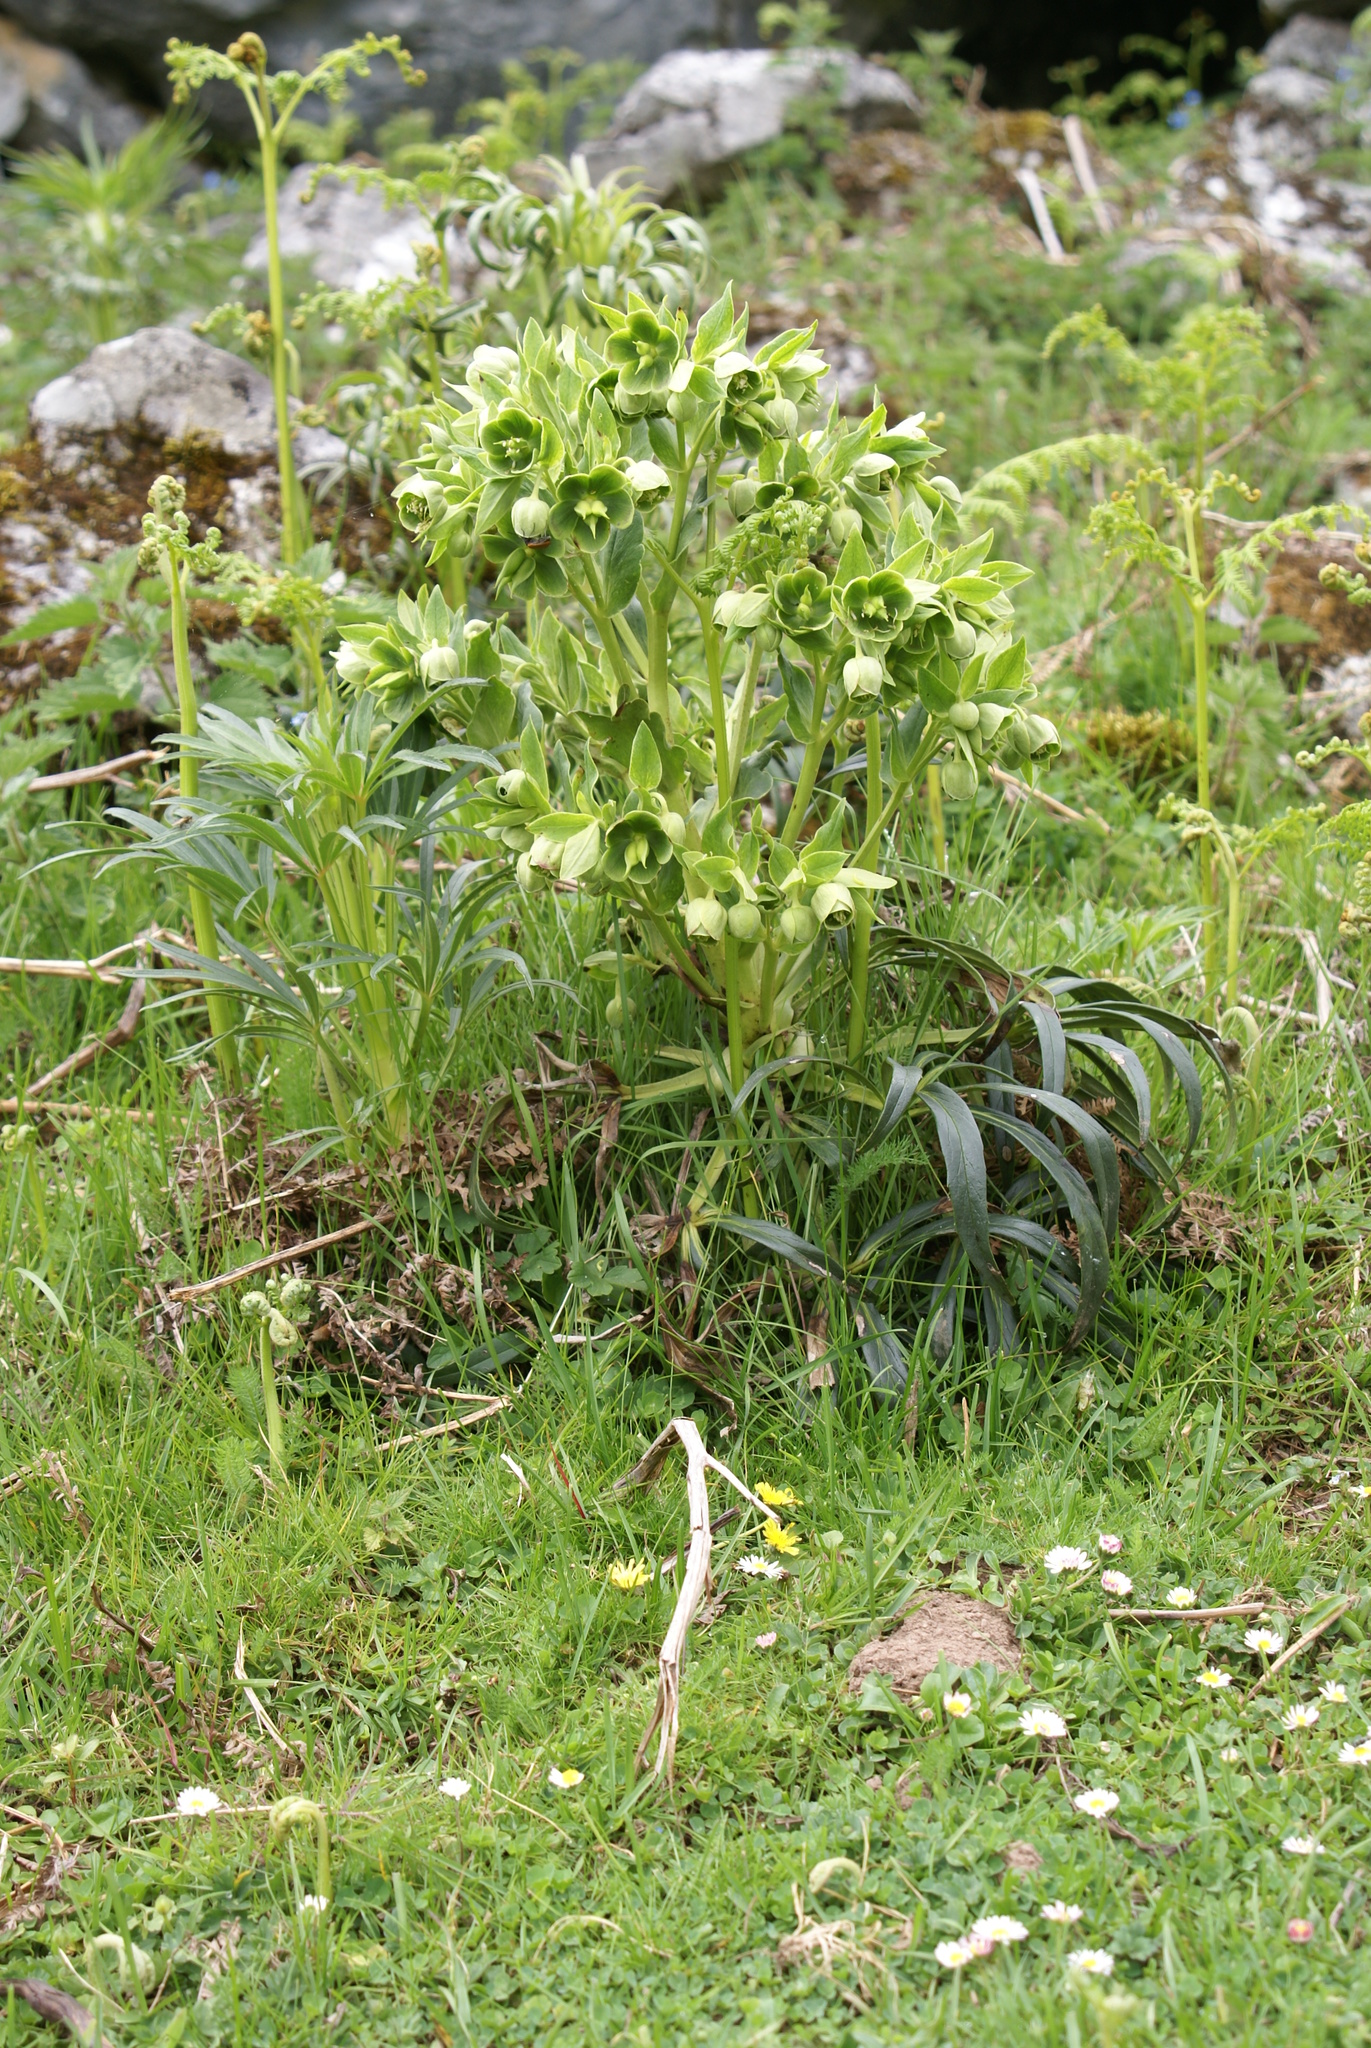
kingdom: Plantae
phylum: Tracheophyta
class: Magnoliopsida
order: Ranunculales
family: Ranunculaceae
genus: Helleborus
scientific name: Helleborus foetidus
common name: Stinking hellebore
